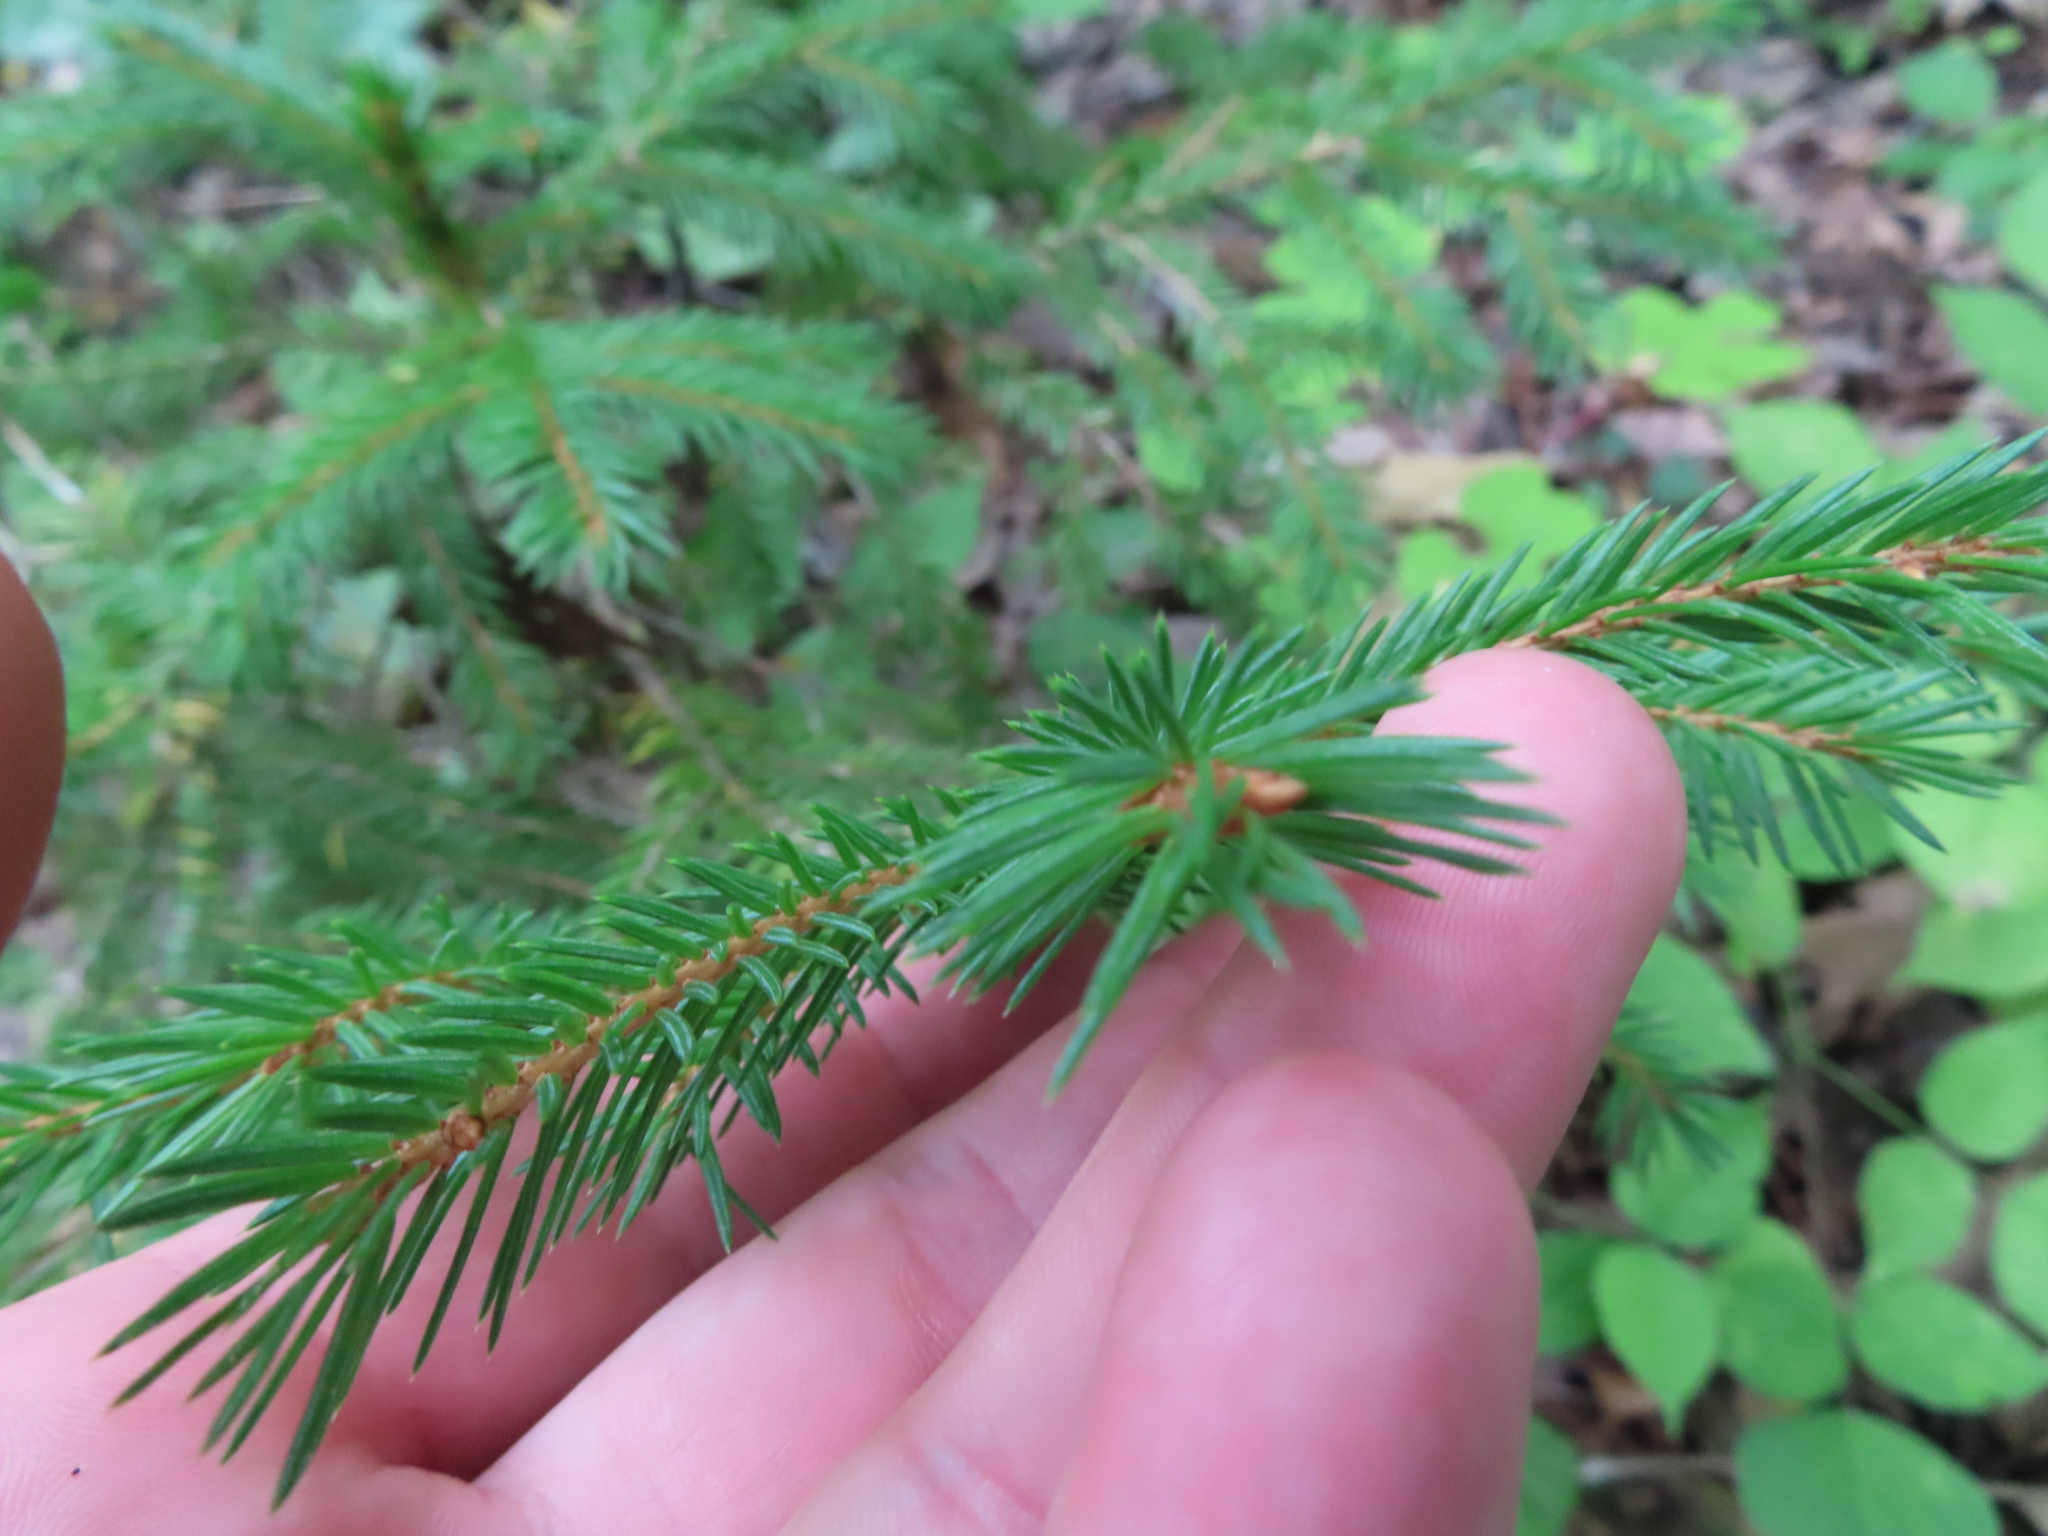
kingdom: Plantae
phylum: Tracheophyta
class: Pinopsida
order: Pinales
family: Pinaceae
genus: Picea
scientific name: Picea abies
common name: Norway spruce
